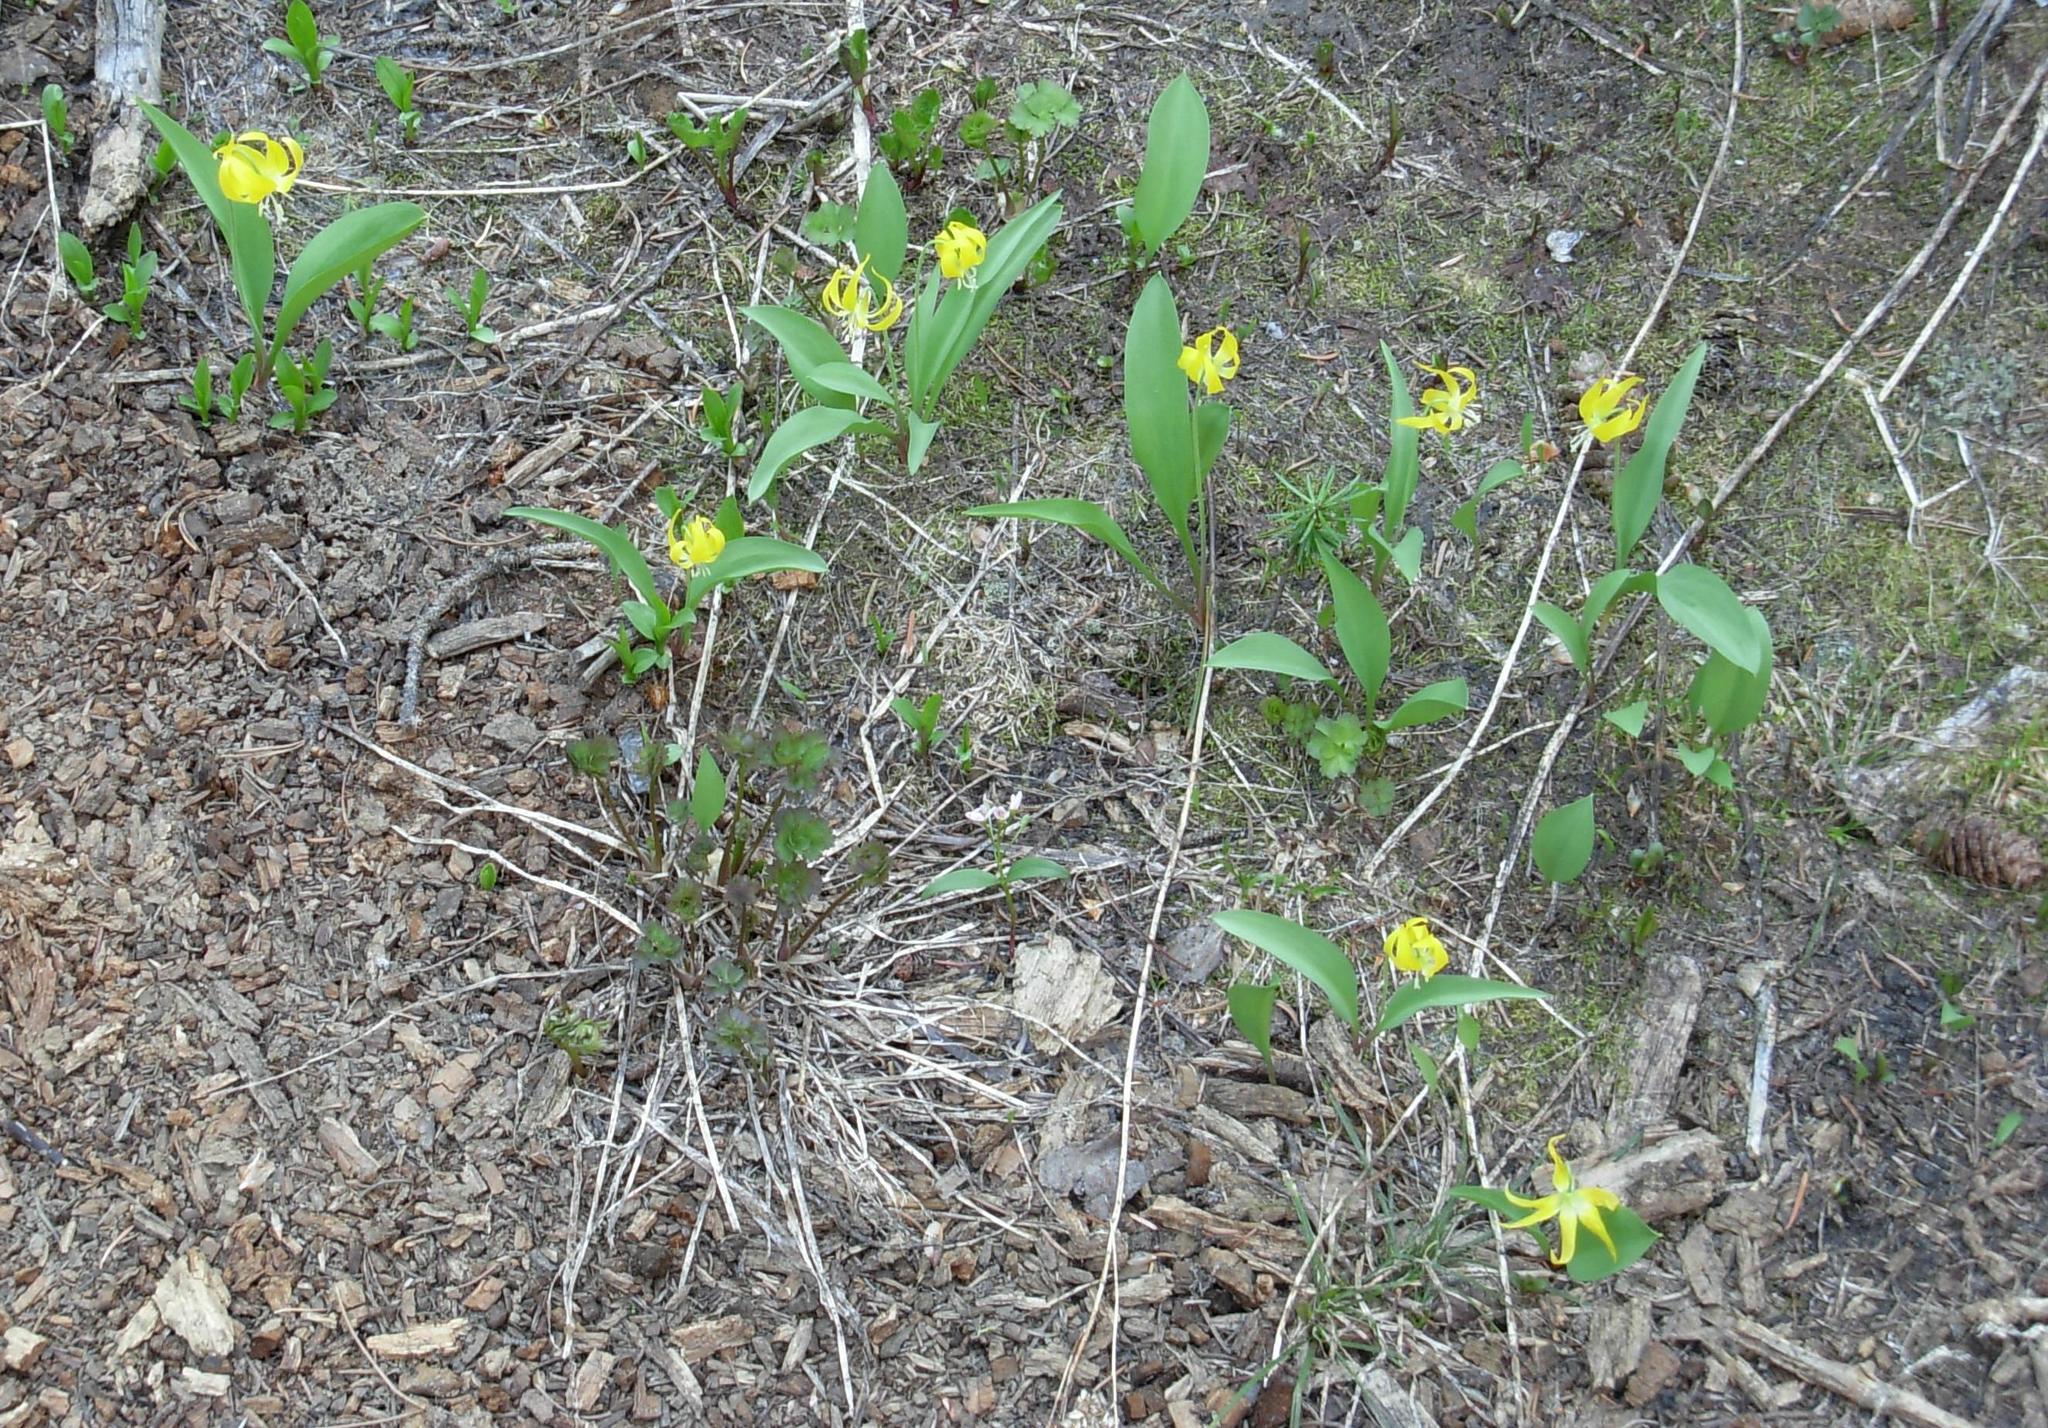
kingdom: Plantae
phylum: Tracheophyta
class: Liliopsida
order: Liliales
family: Liliaceae
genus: Erythronium
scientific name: Erythronium grandiflorum
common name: Avalanche-lily
